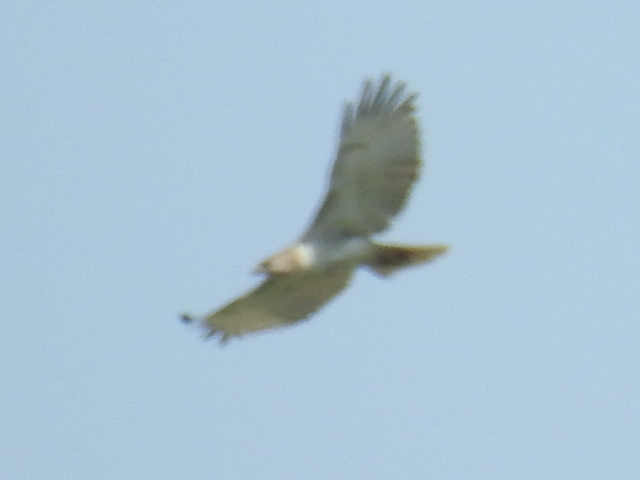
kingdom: Animalia
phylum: Chordata
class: Aves
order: Accipitriformes
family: Accipitridae
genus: Buteo
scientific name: Buteo jamaicensis
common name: Red-tailed hawk
